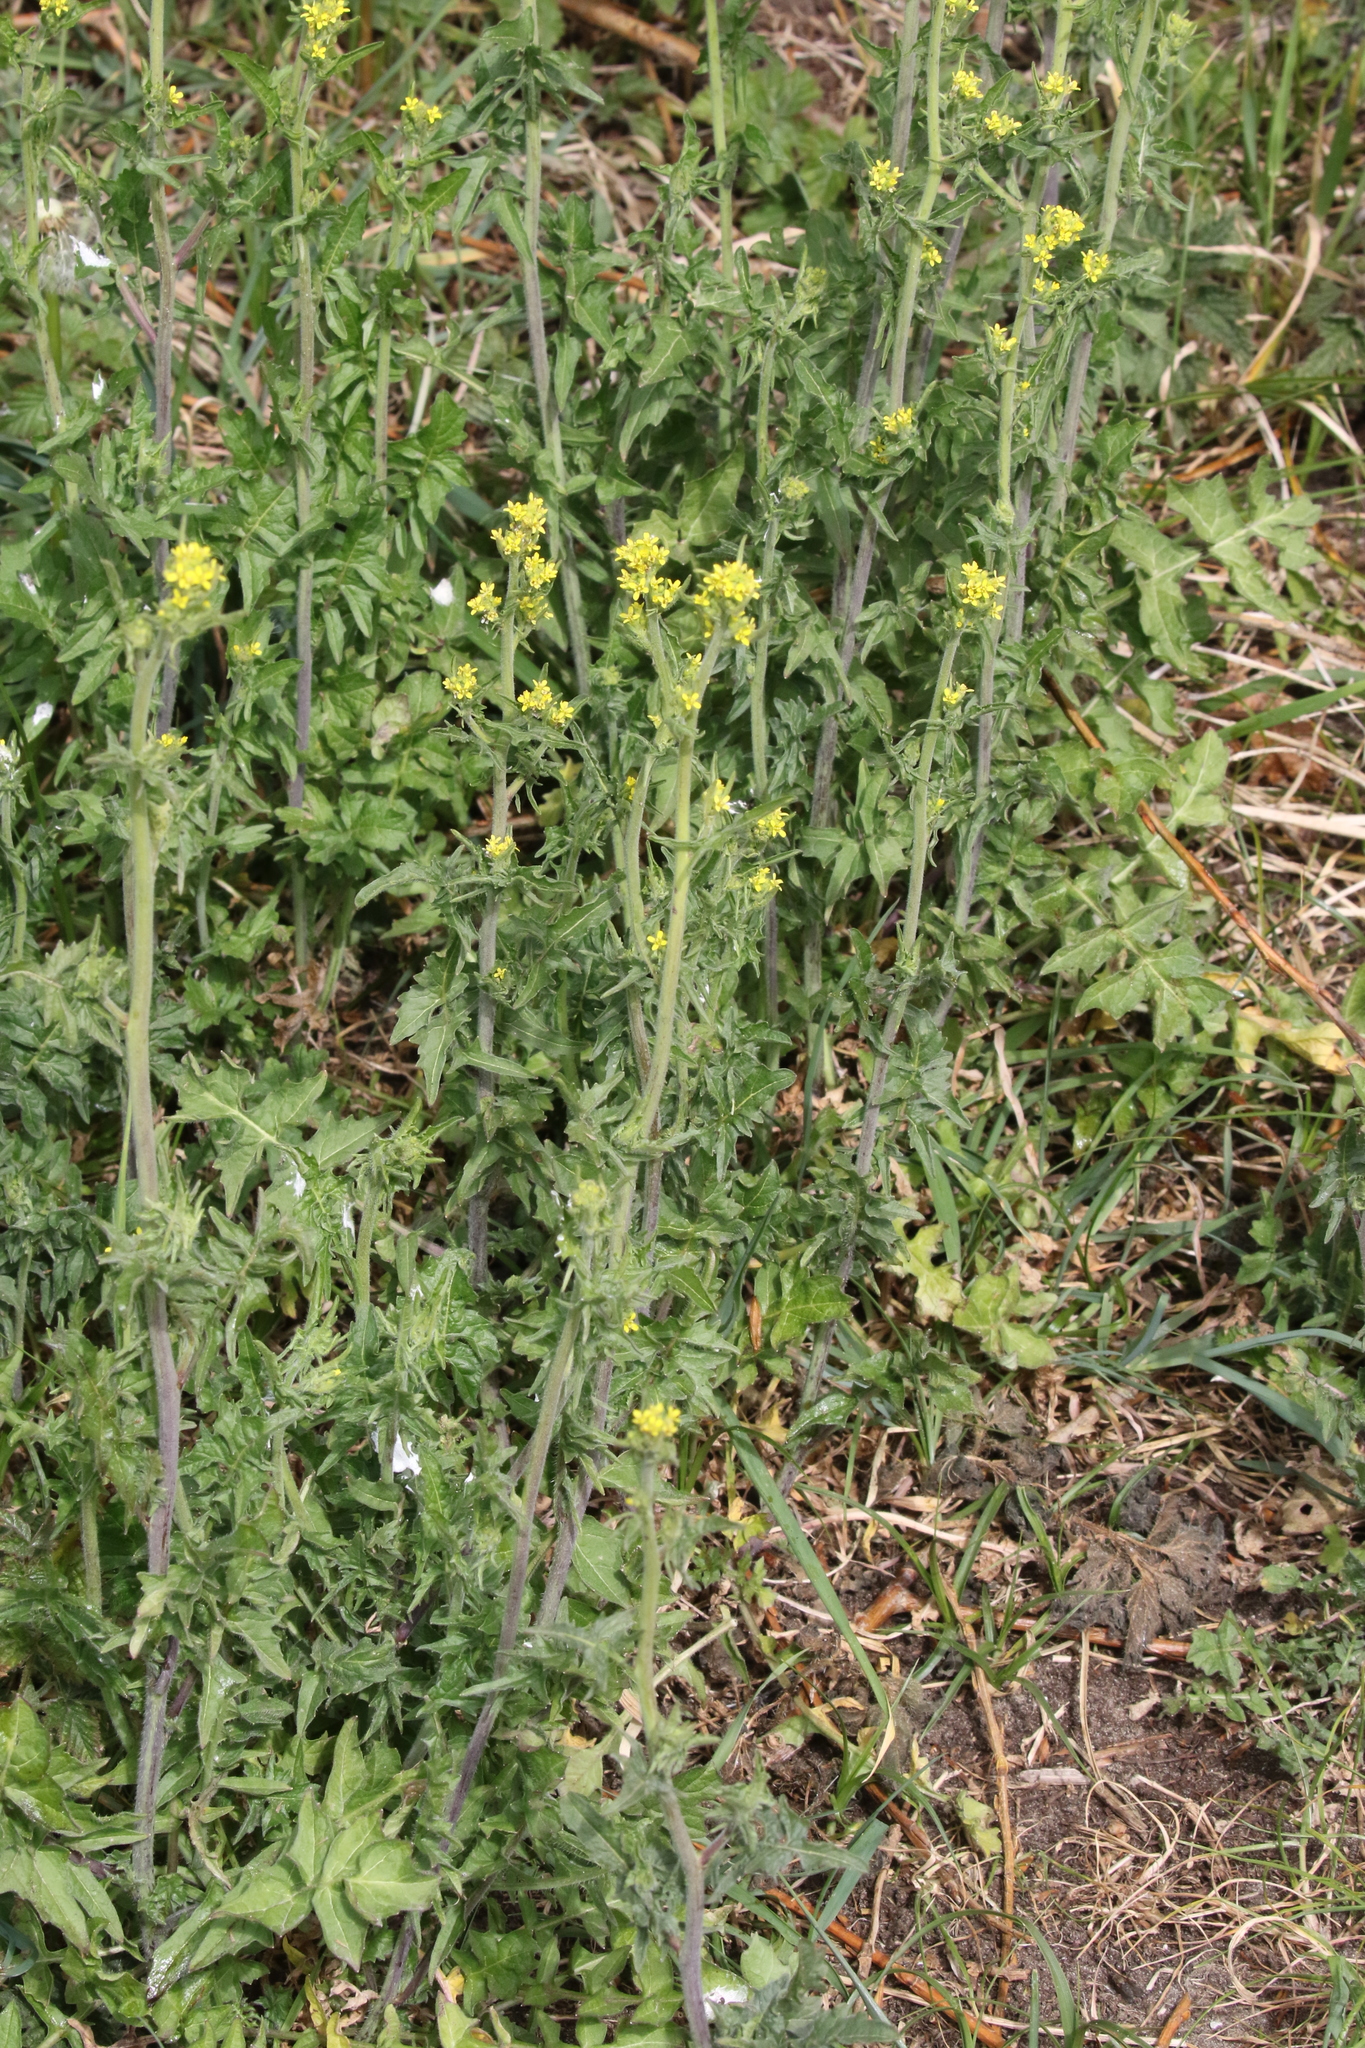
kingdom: Plantae
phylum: Tracheophyta
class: Magnoliopsida
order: Brassicales
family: Brassicaceae
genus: Sisymbrium
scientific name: Sisymbrium officinale
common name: Hedge mustard
